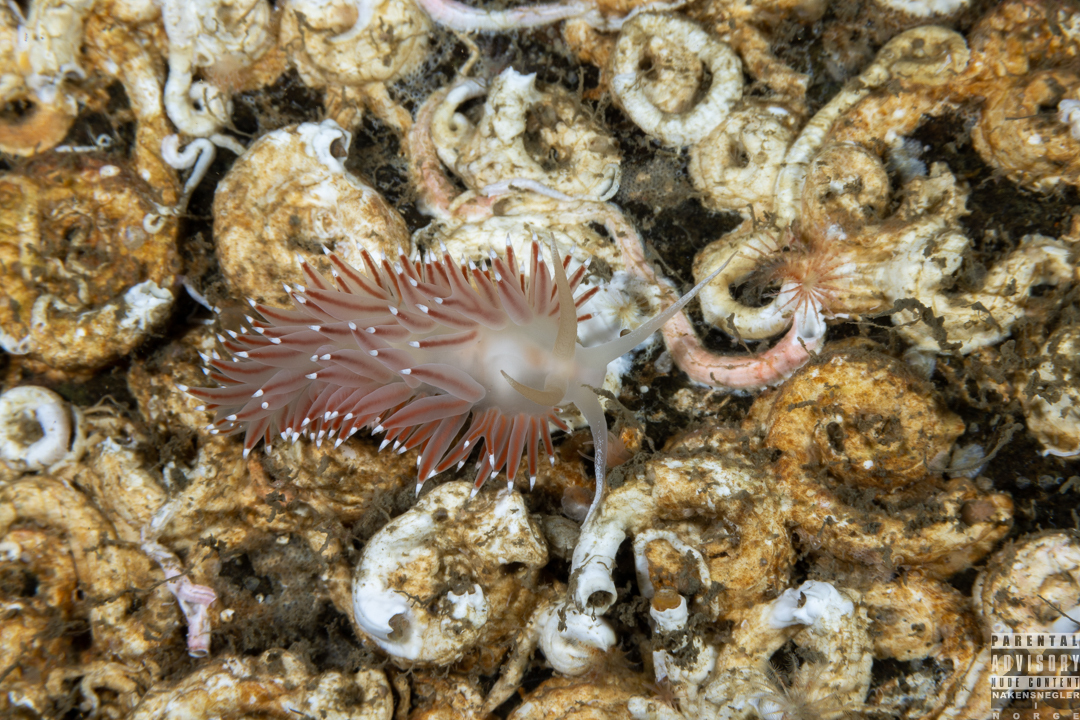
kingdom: Animalia
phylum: Mollusca
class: Gastropoda
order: Nudibranchia
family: Coryphellidae
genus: Coryphella
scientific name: Coryphella browni
